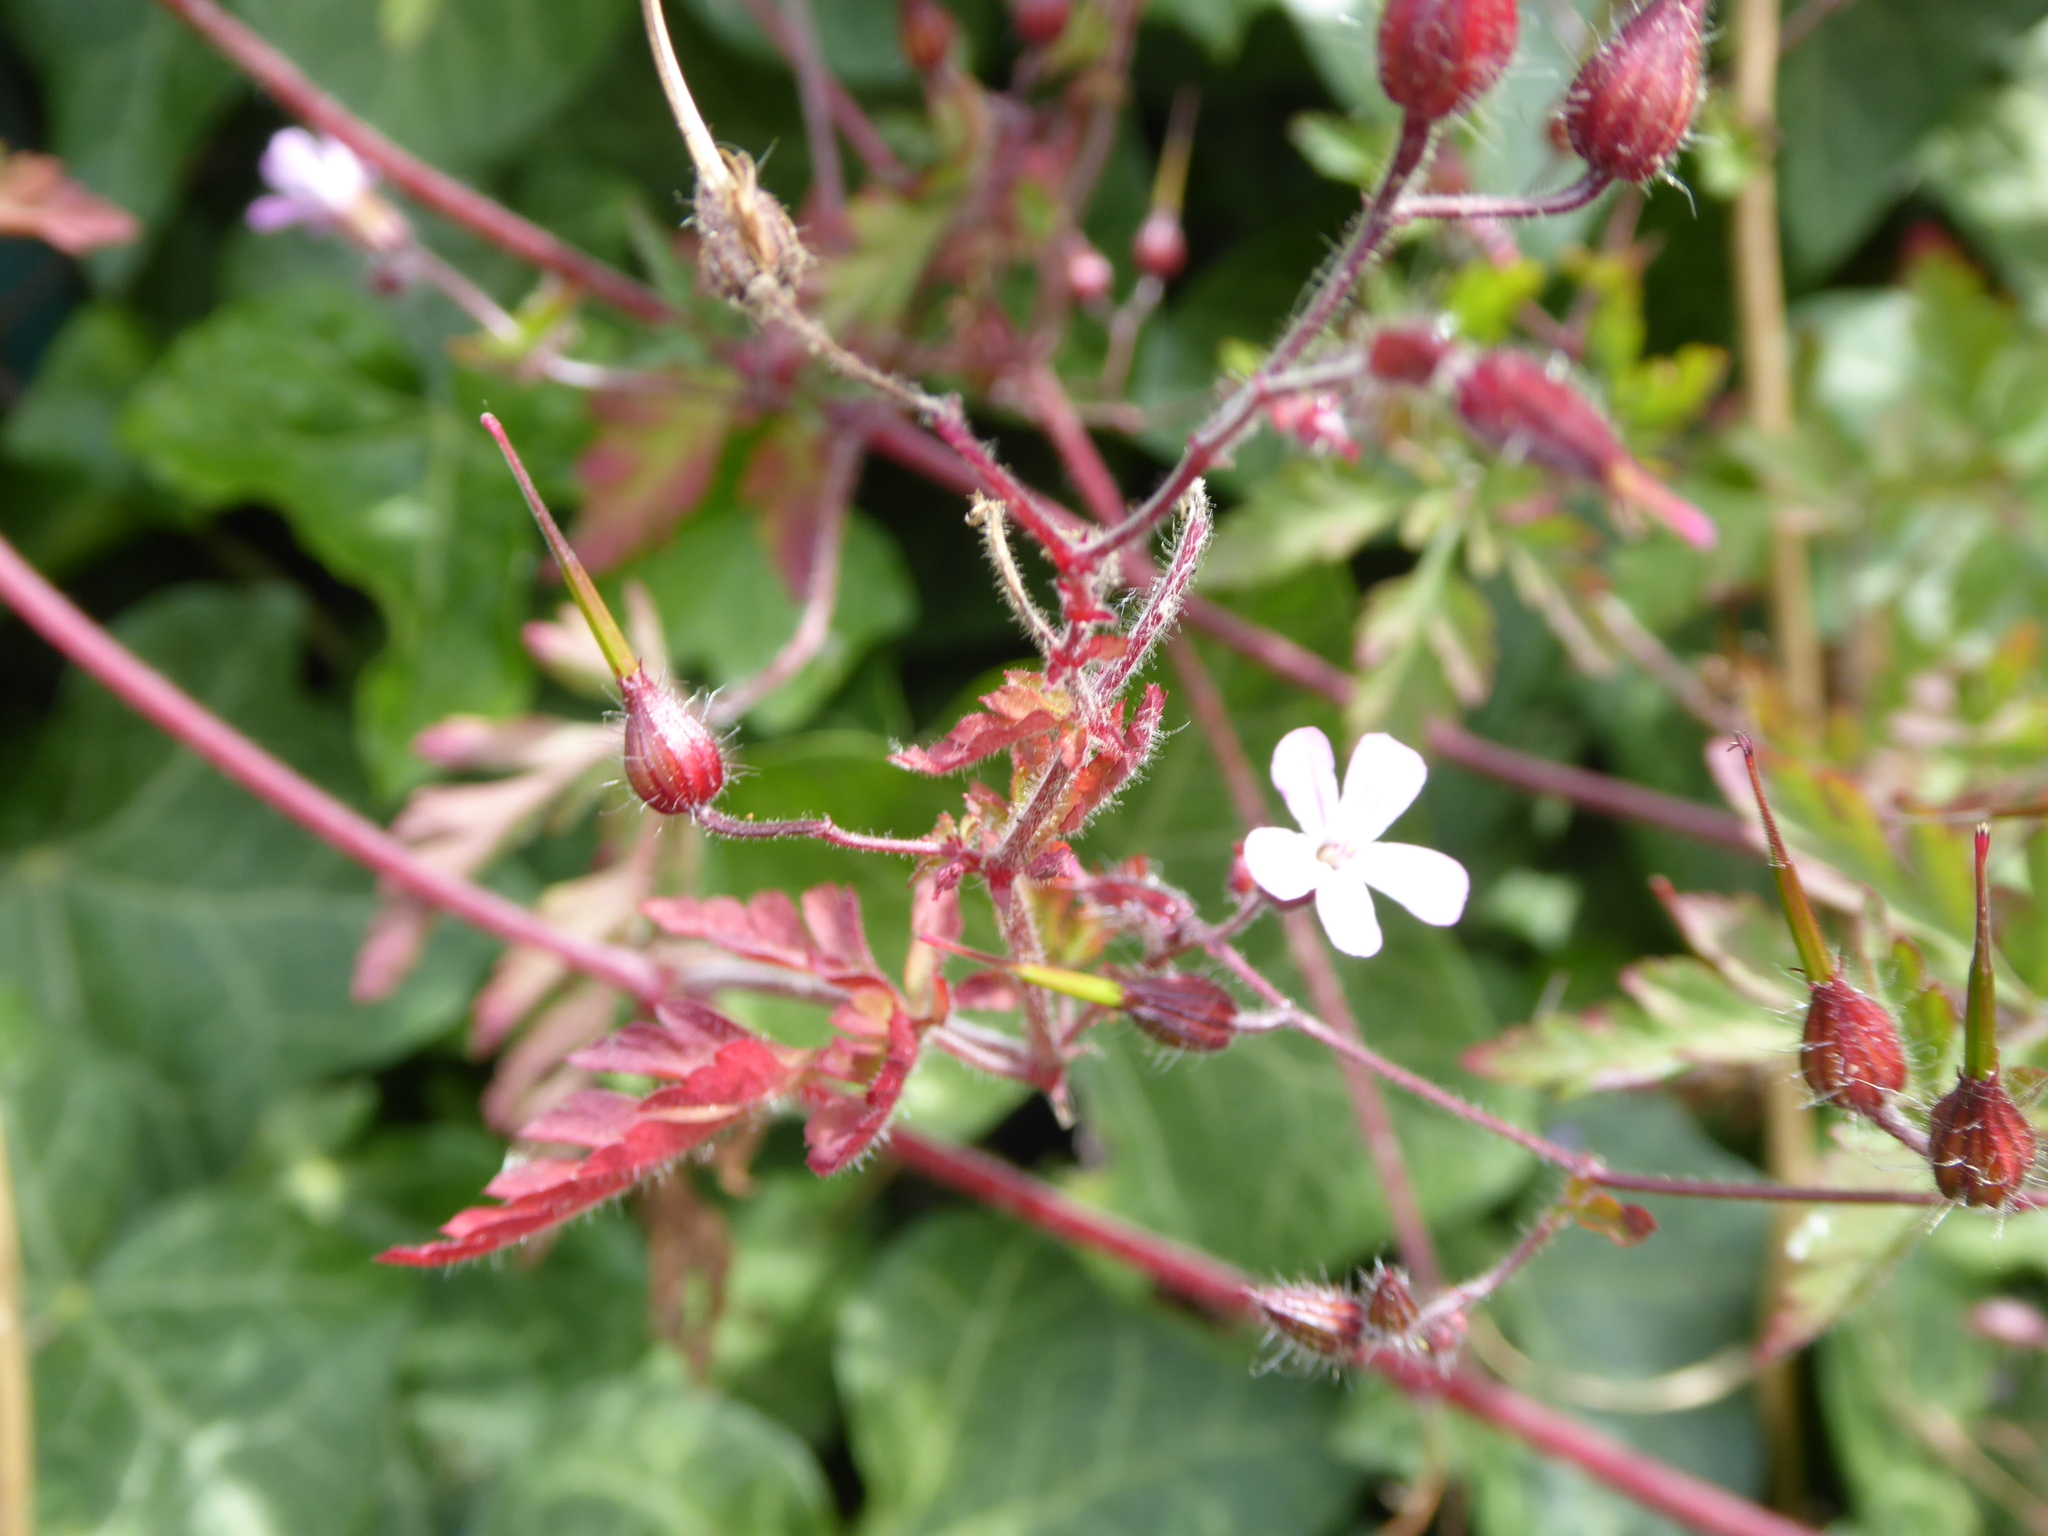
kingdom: Plantae
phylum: Tracheophyta
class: Magnoliopsida
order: Geraniales
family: Geraniaceae
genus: Geranium
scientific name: Geranium robertianum
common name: Herb-robert
